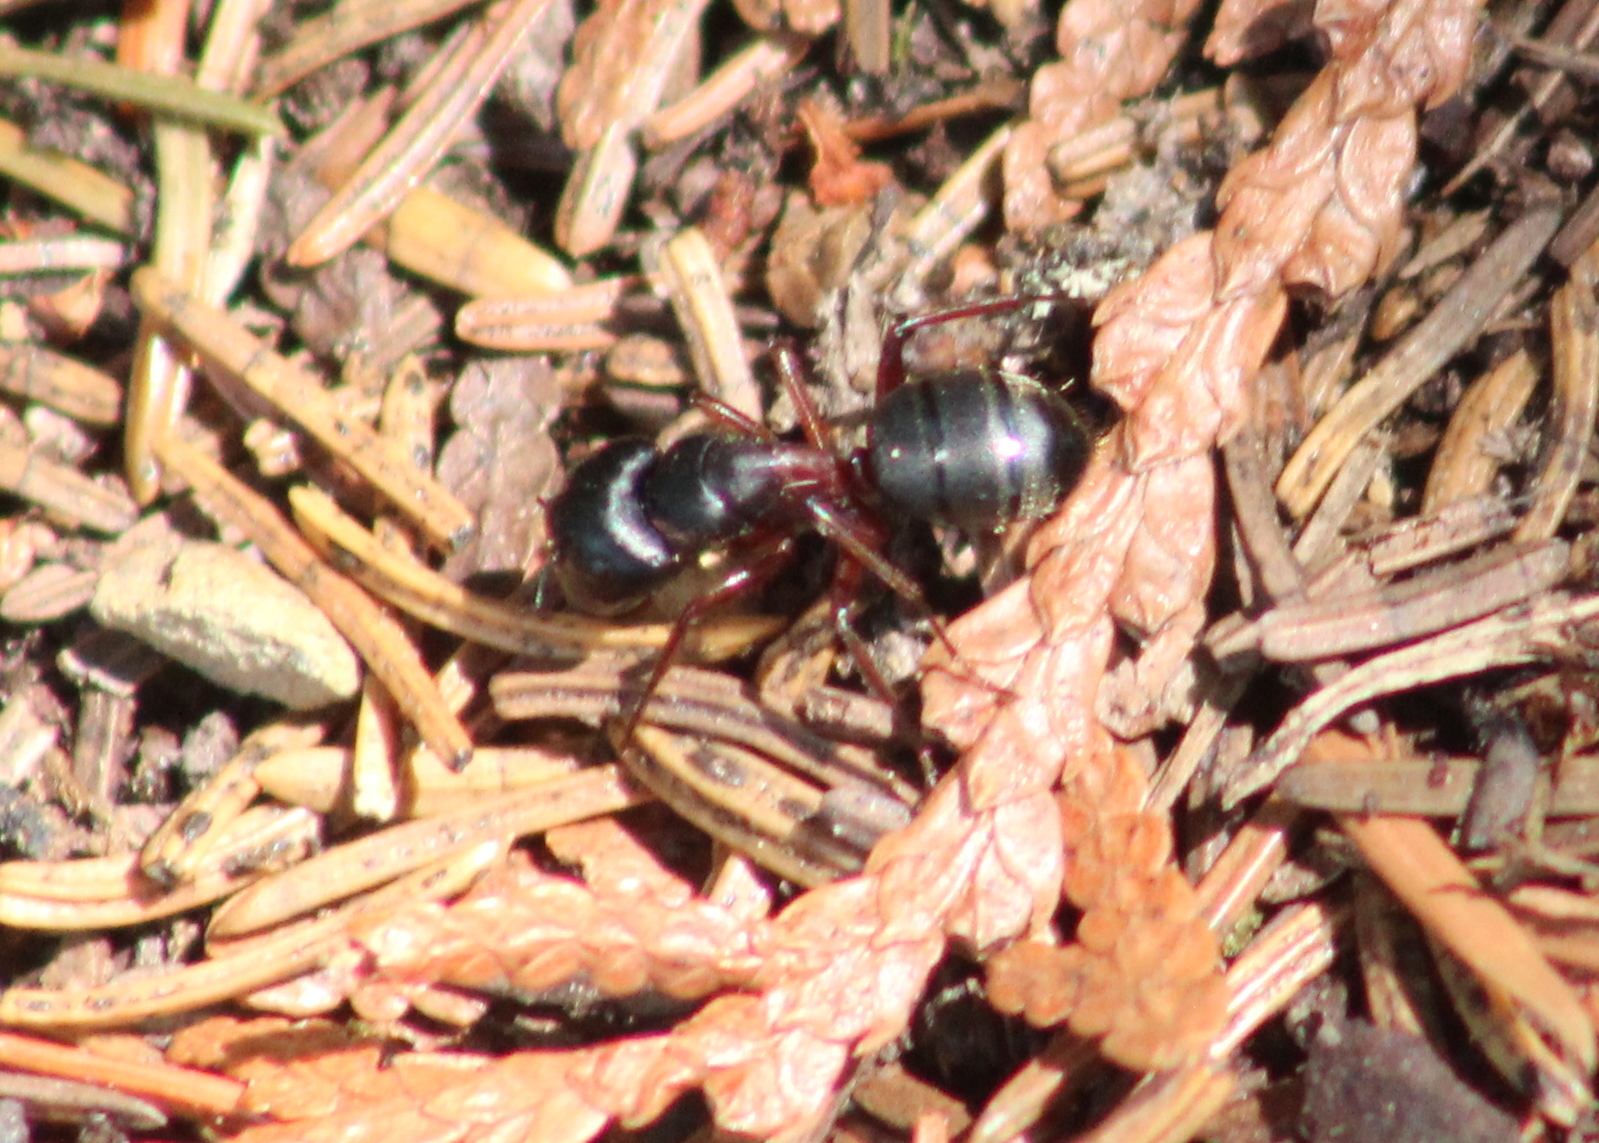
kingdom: Animalia
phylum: Arthropoda
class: Insecta
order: Hymenoptera
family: Formicidae
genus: Camponotus
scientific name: Camponotus herculeanus
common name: Hercules ant
